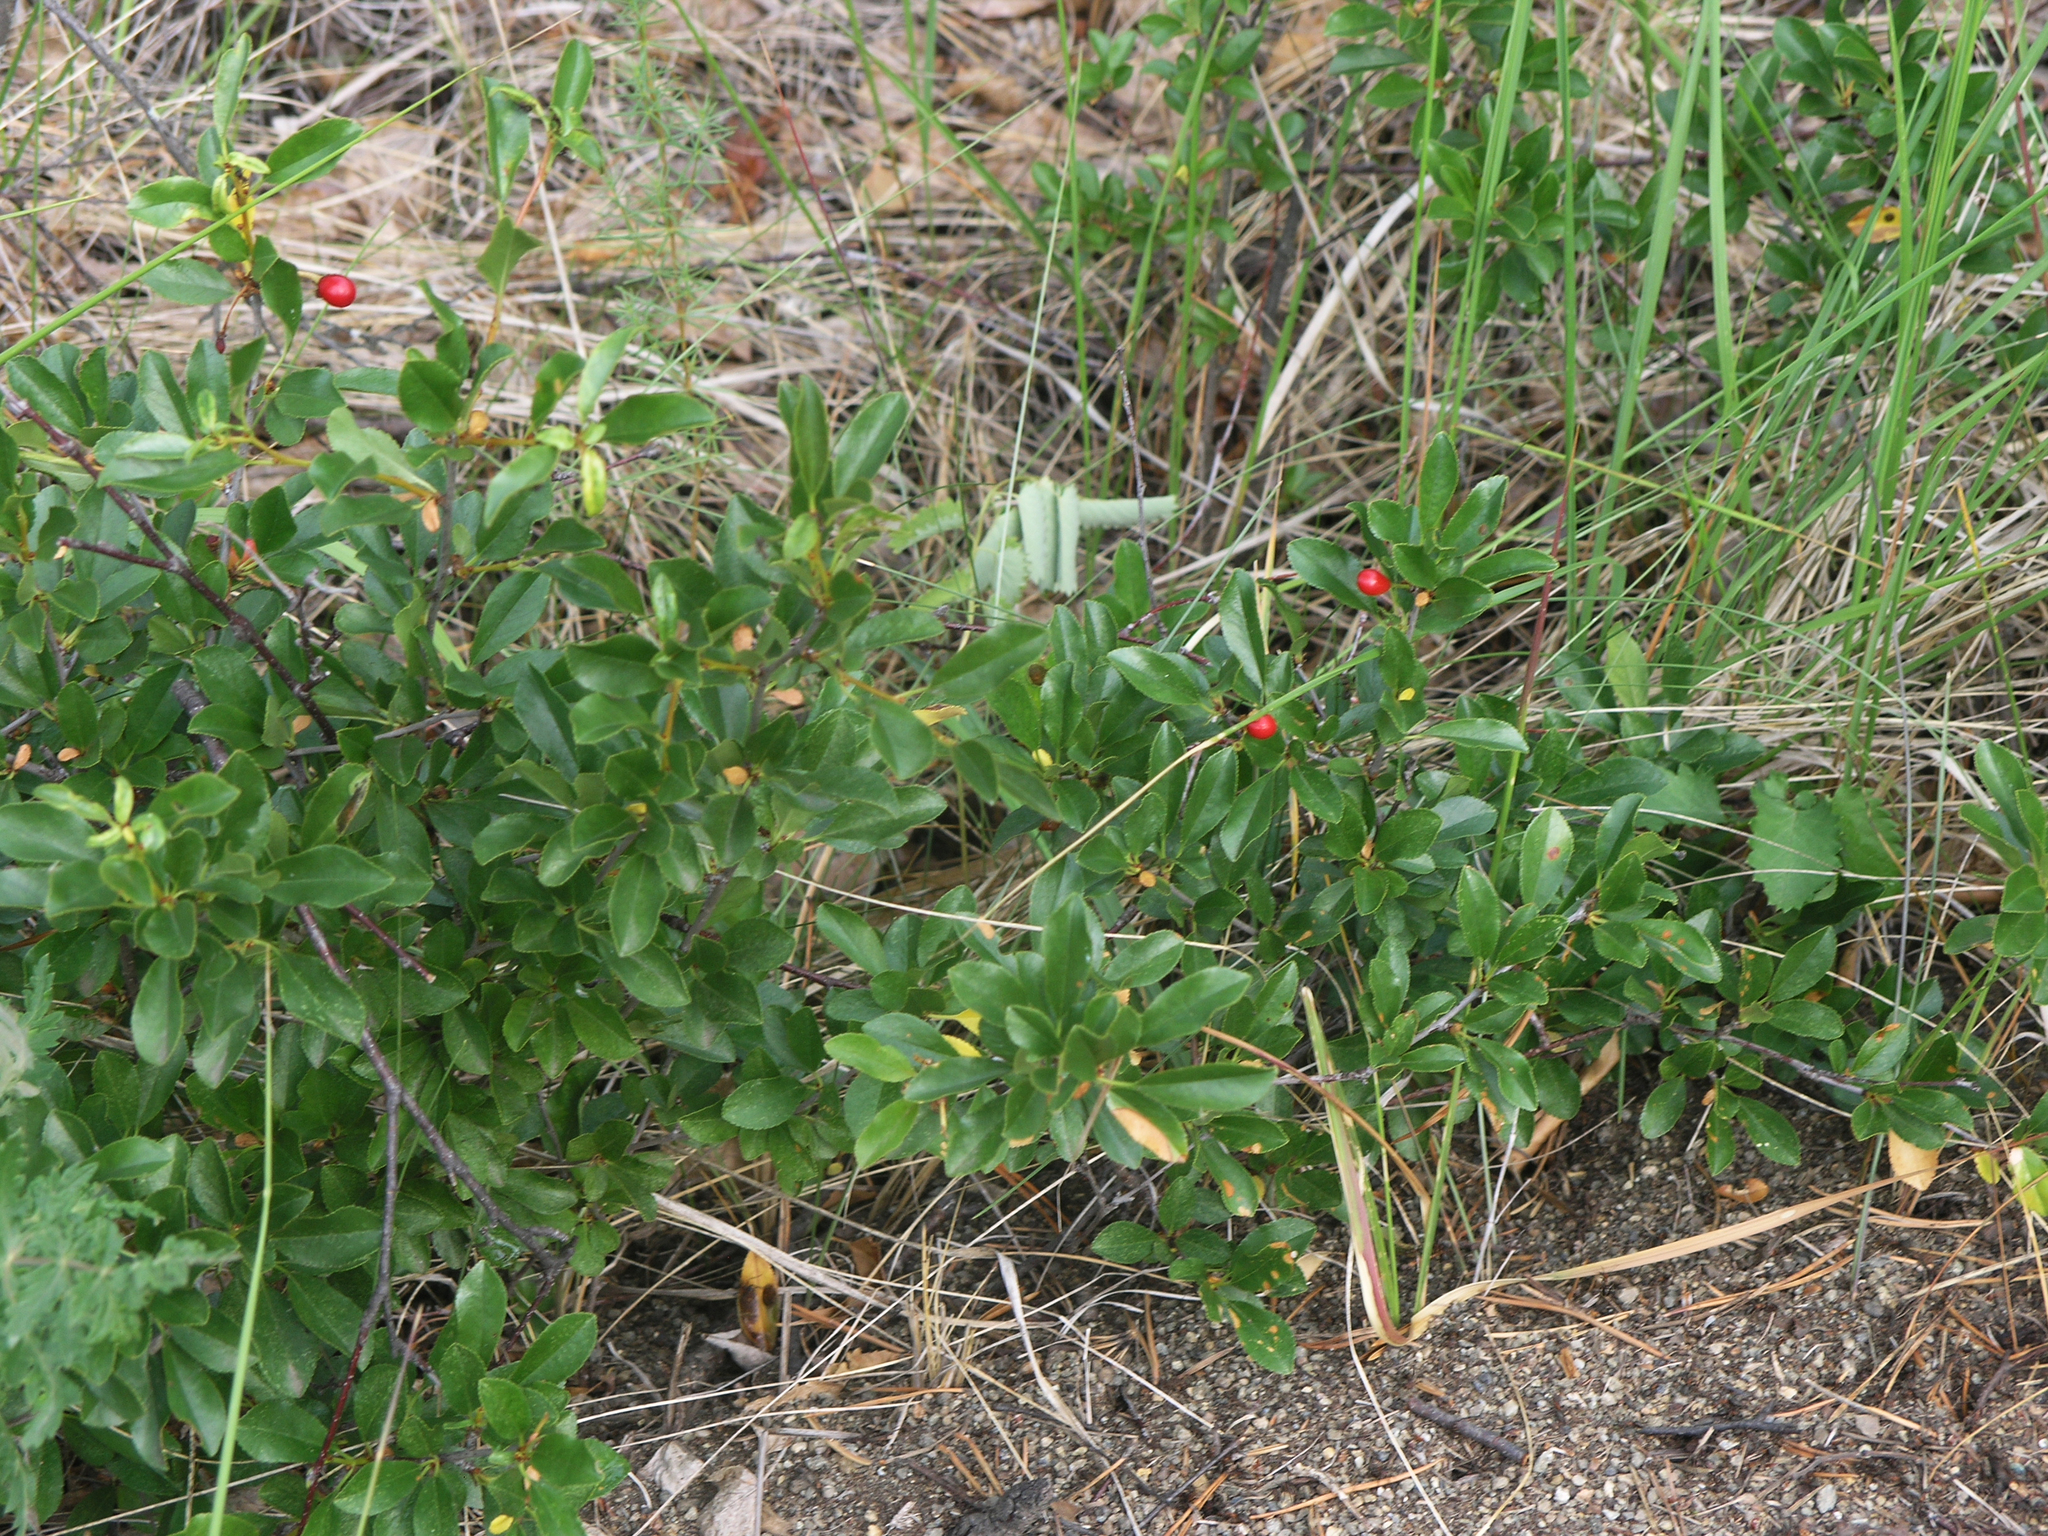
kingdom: Plantae
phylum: Tracheophyta
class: Magnoliopsida
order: Rosales
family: Rosaceae
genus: Prunus
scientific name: Prunus fruticosa
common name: European dwarf cherry
